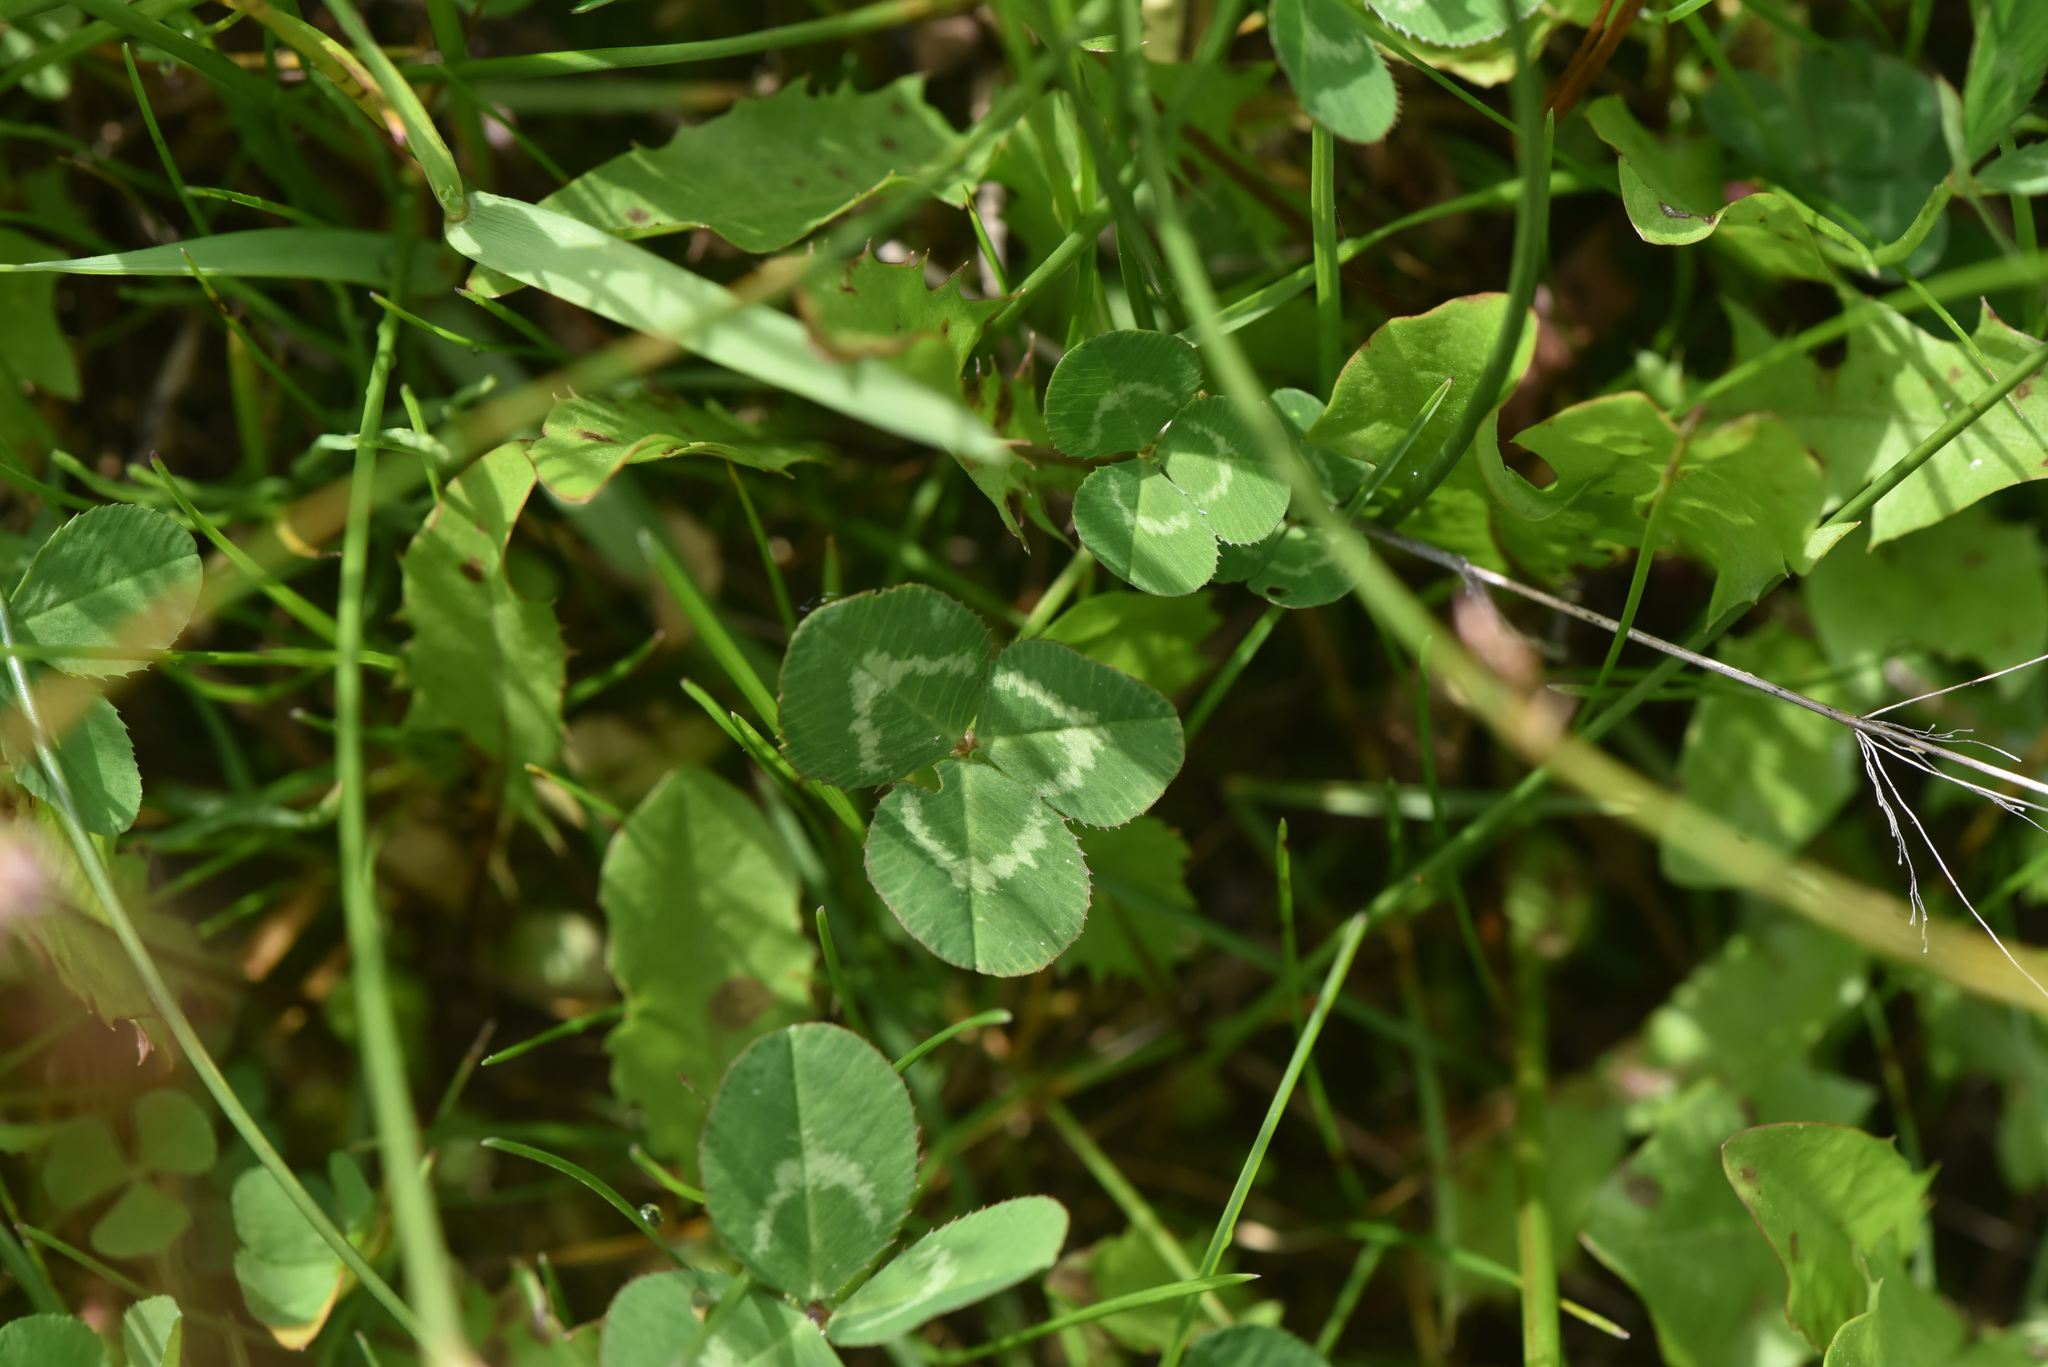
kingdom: Plantae
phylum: Tracheophyta
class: Magnoliopsida
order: Fabales
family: Fabaceae
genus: Trifolium
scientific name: Trifolium repens
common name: White clover
